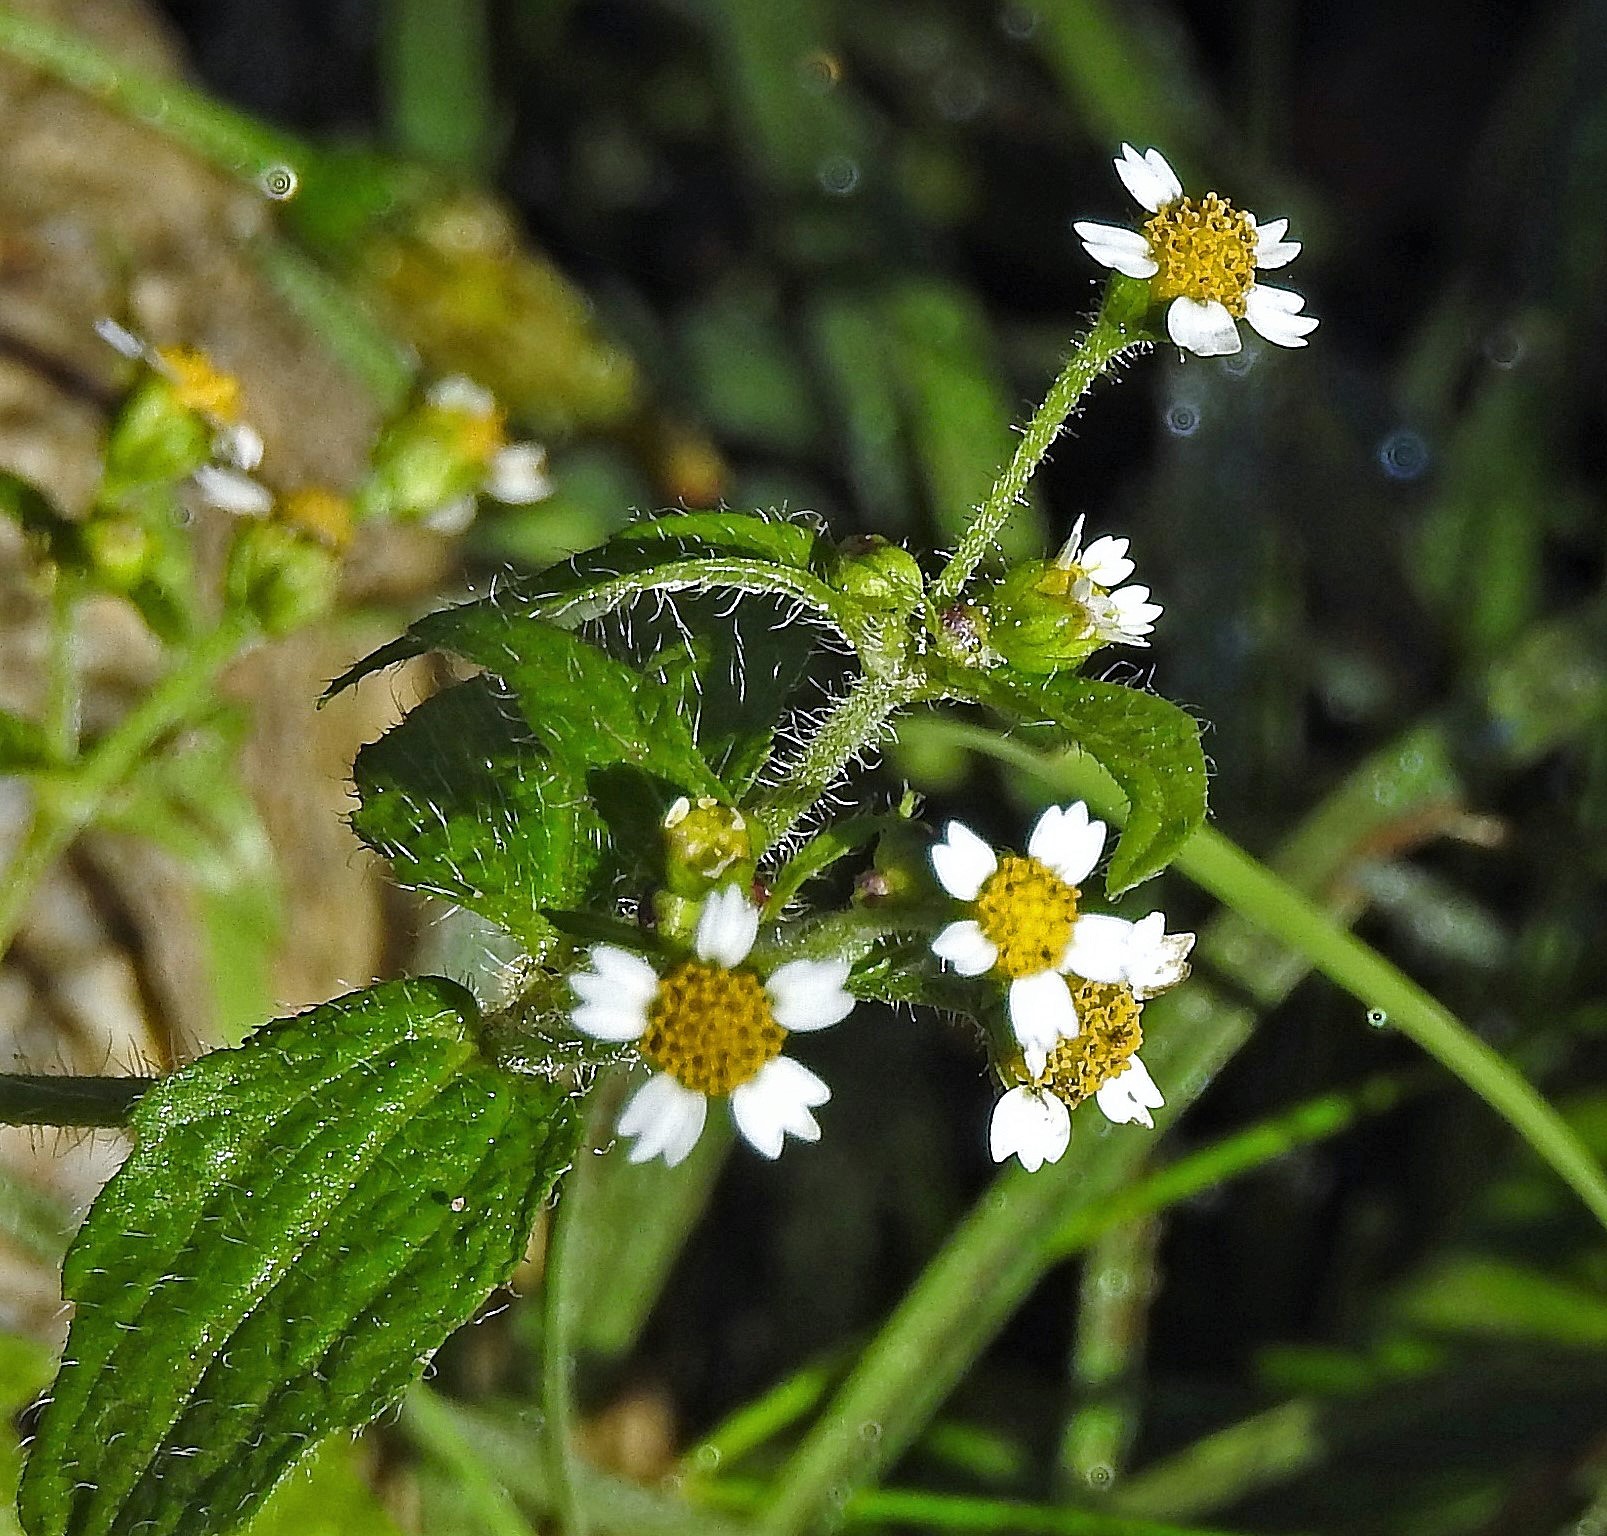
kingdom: Plantae
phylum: Tracheophyta
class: Magnoliopsida
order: Asterales
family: Asteraceae
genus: Galinsoga
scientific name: Galinsoga quadriradiata
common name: Shaggy soldier
